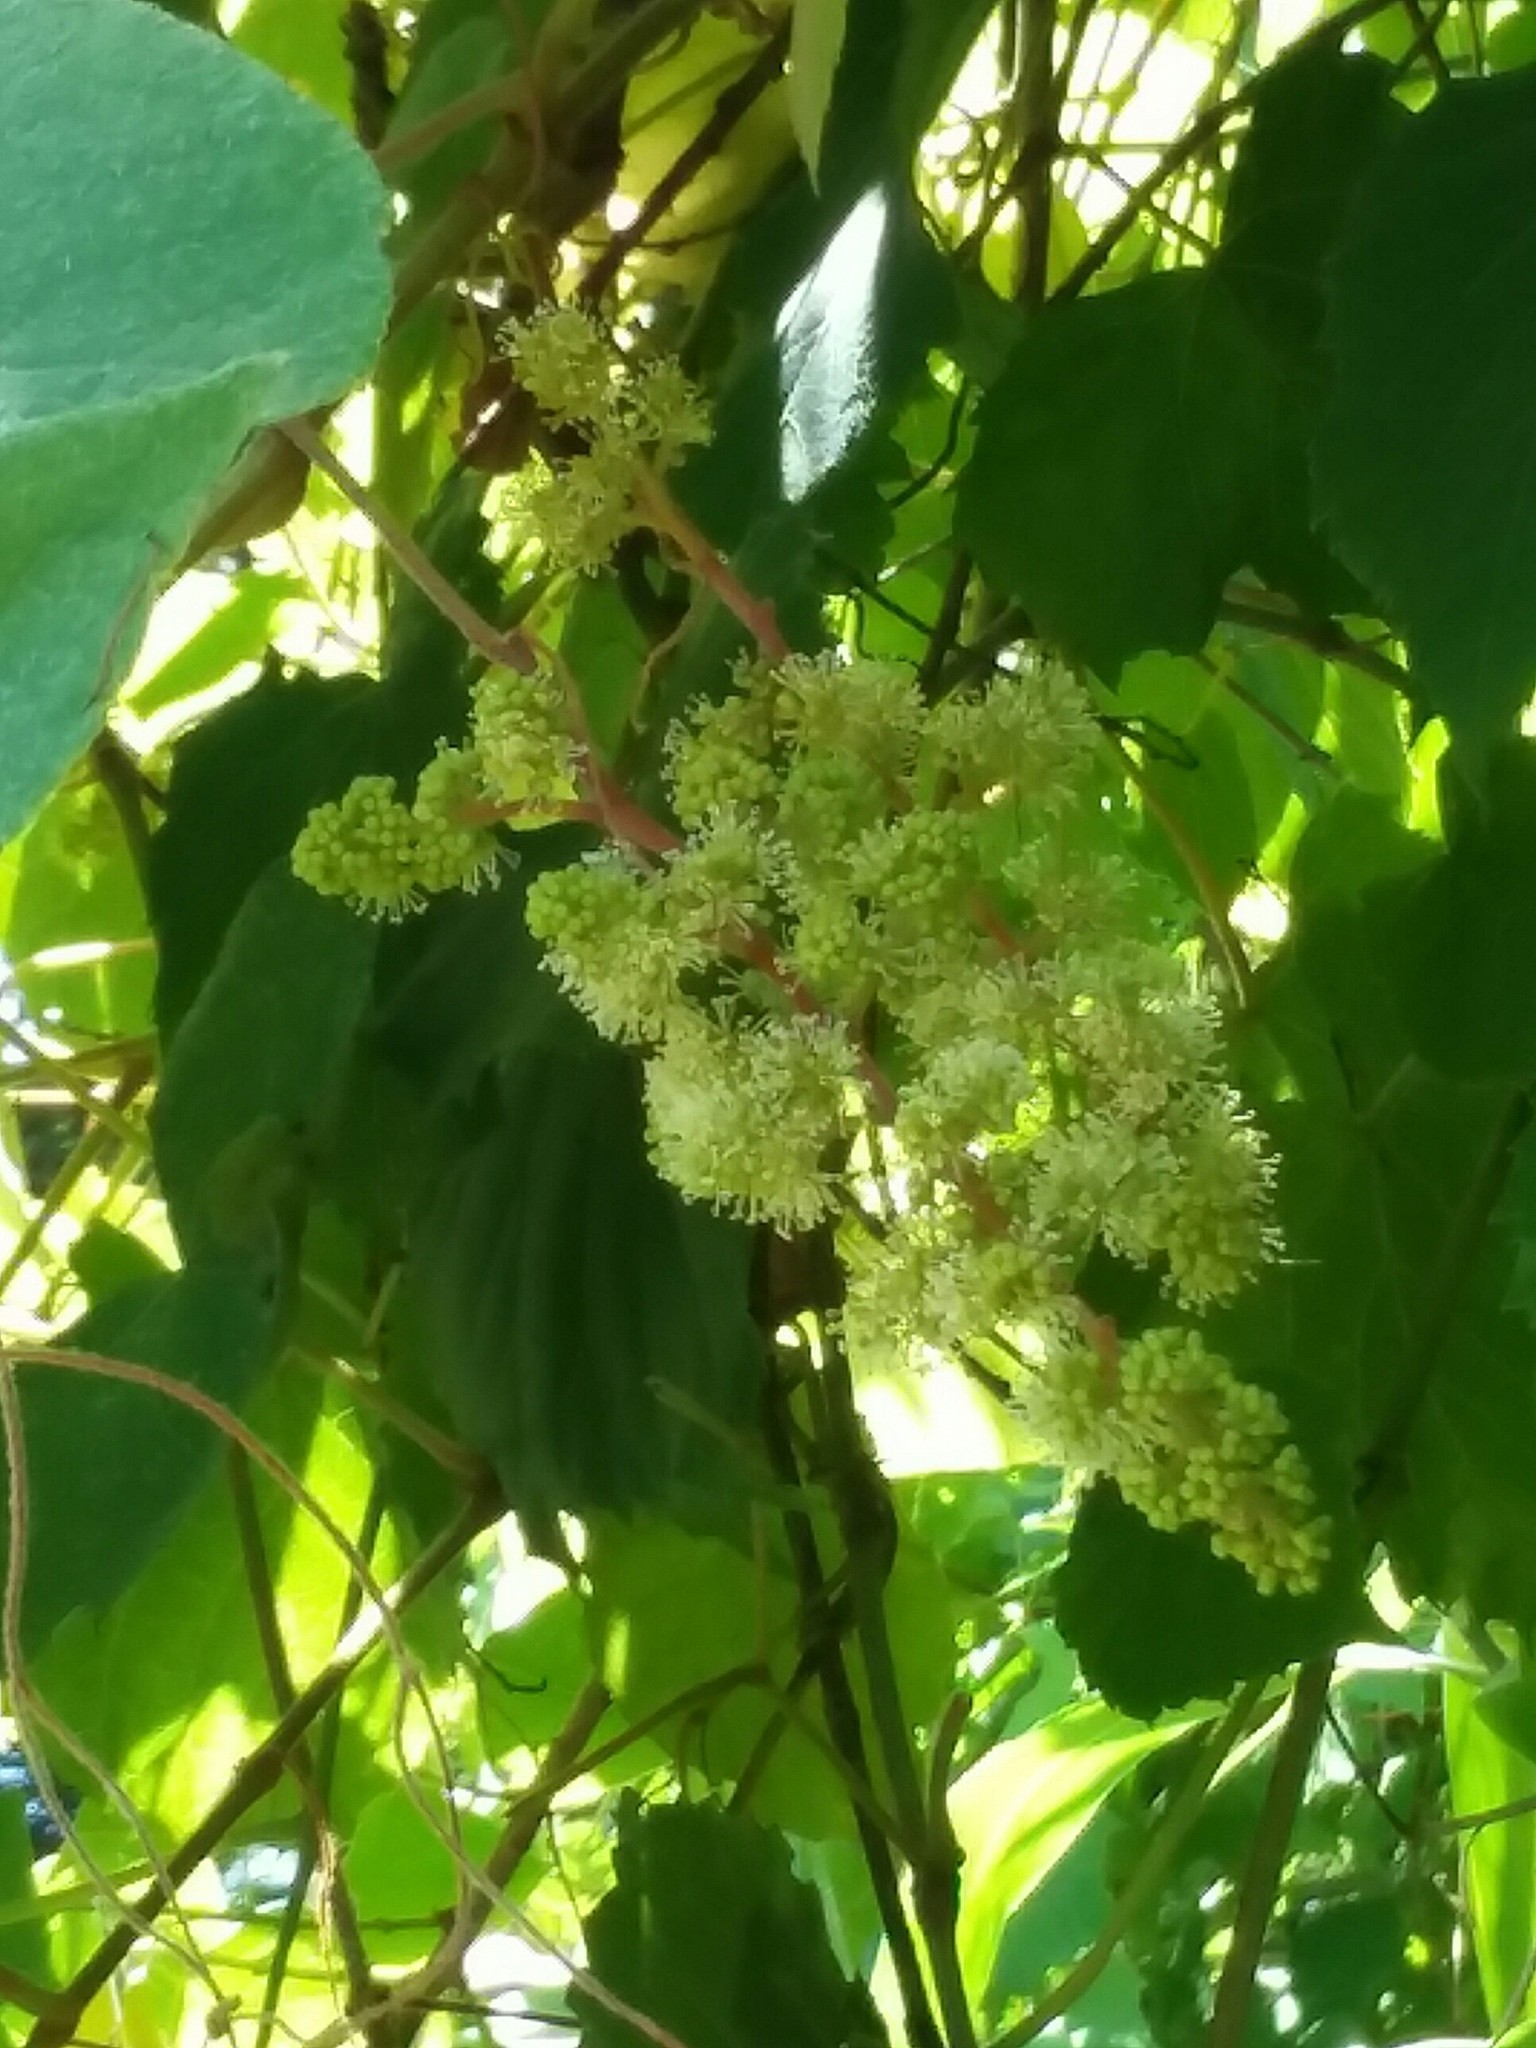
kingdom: Plantae
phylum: Tracheophyta
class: Magnoliopsida
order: Vitales
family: Vitaceae
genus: Vitis
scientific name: Vitis vulpina
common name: Frost grape
